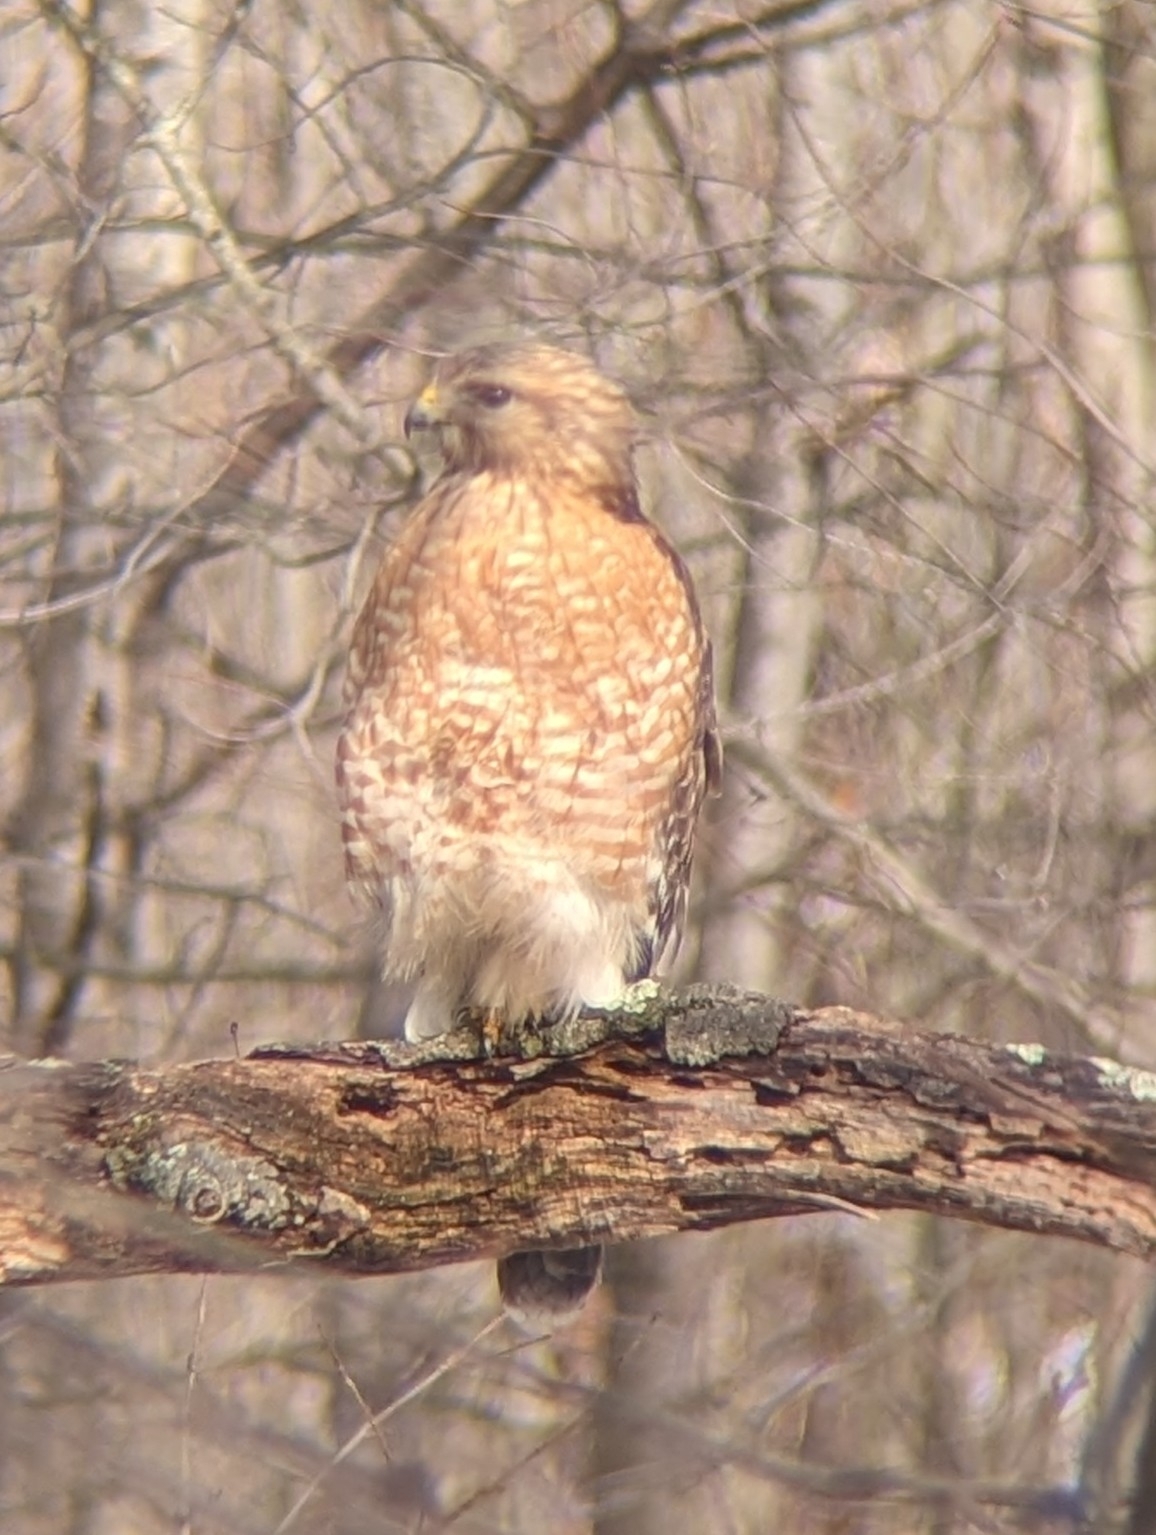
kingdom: Animalia
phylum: Chordata
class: Aves
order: Accipitriformes
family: Accipitridae
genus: Buteo
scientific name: Buteo lineatus
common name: Red-shouldered hawk
